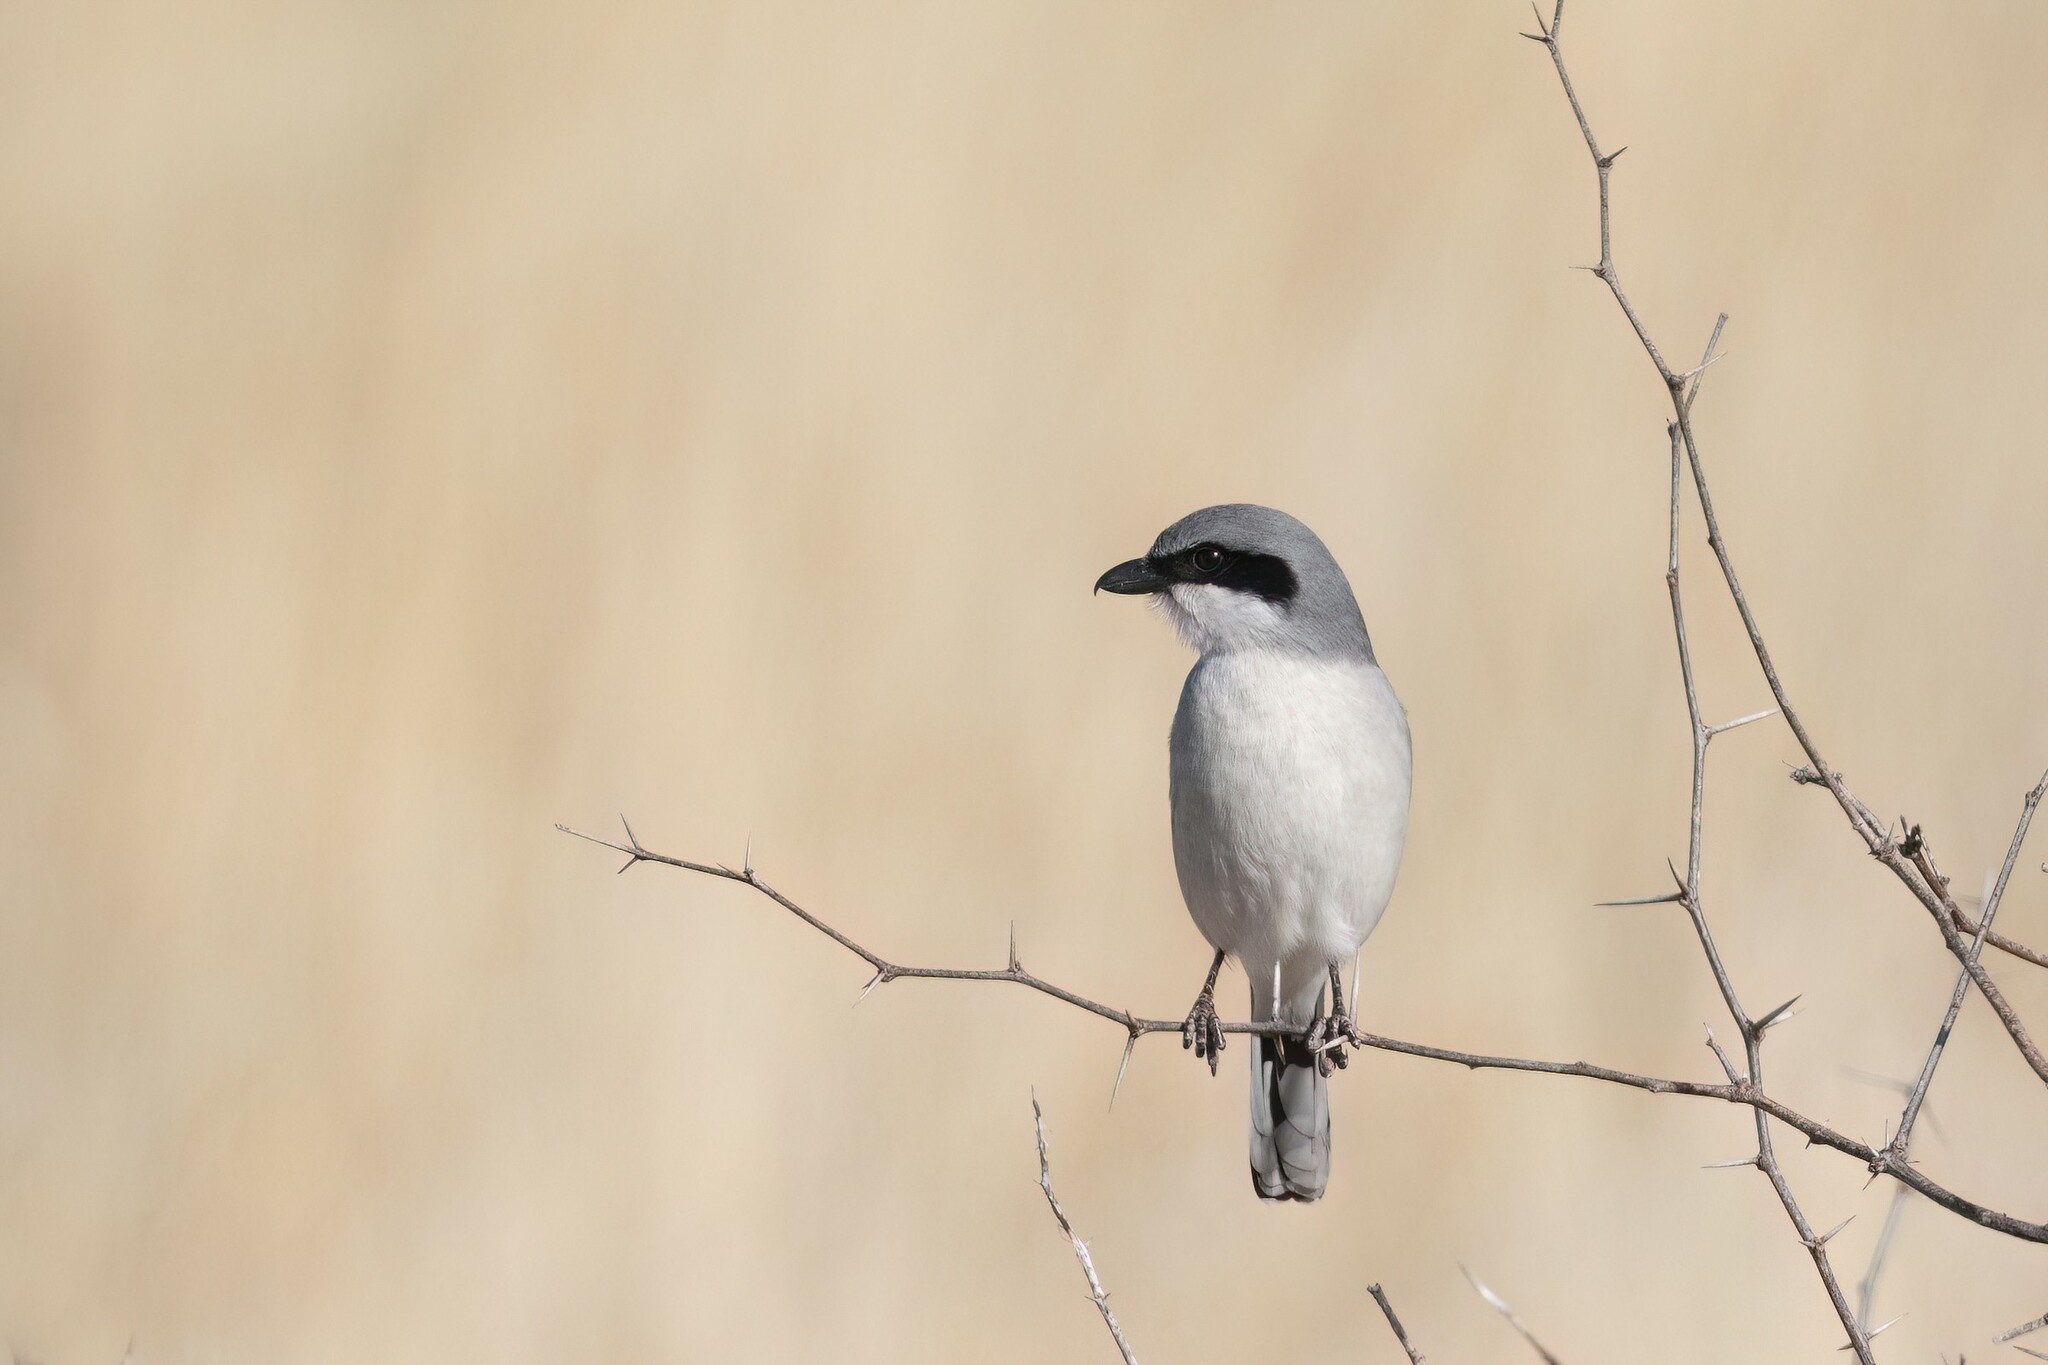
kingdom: Animalia
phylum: Chordata
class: Aves
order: Passeriformes
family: Laniidae
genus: Lanius
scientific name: Lanius ludovicianus
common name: Loggerhead shrike
